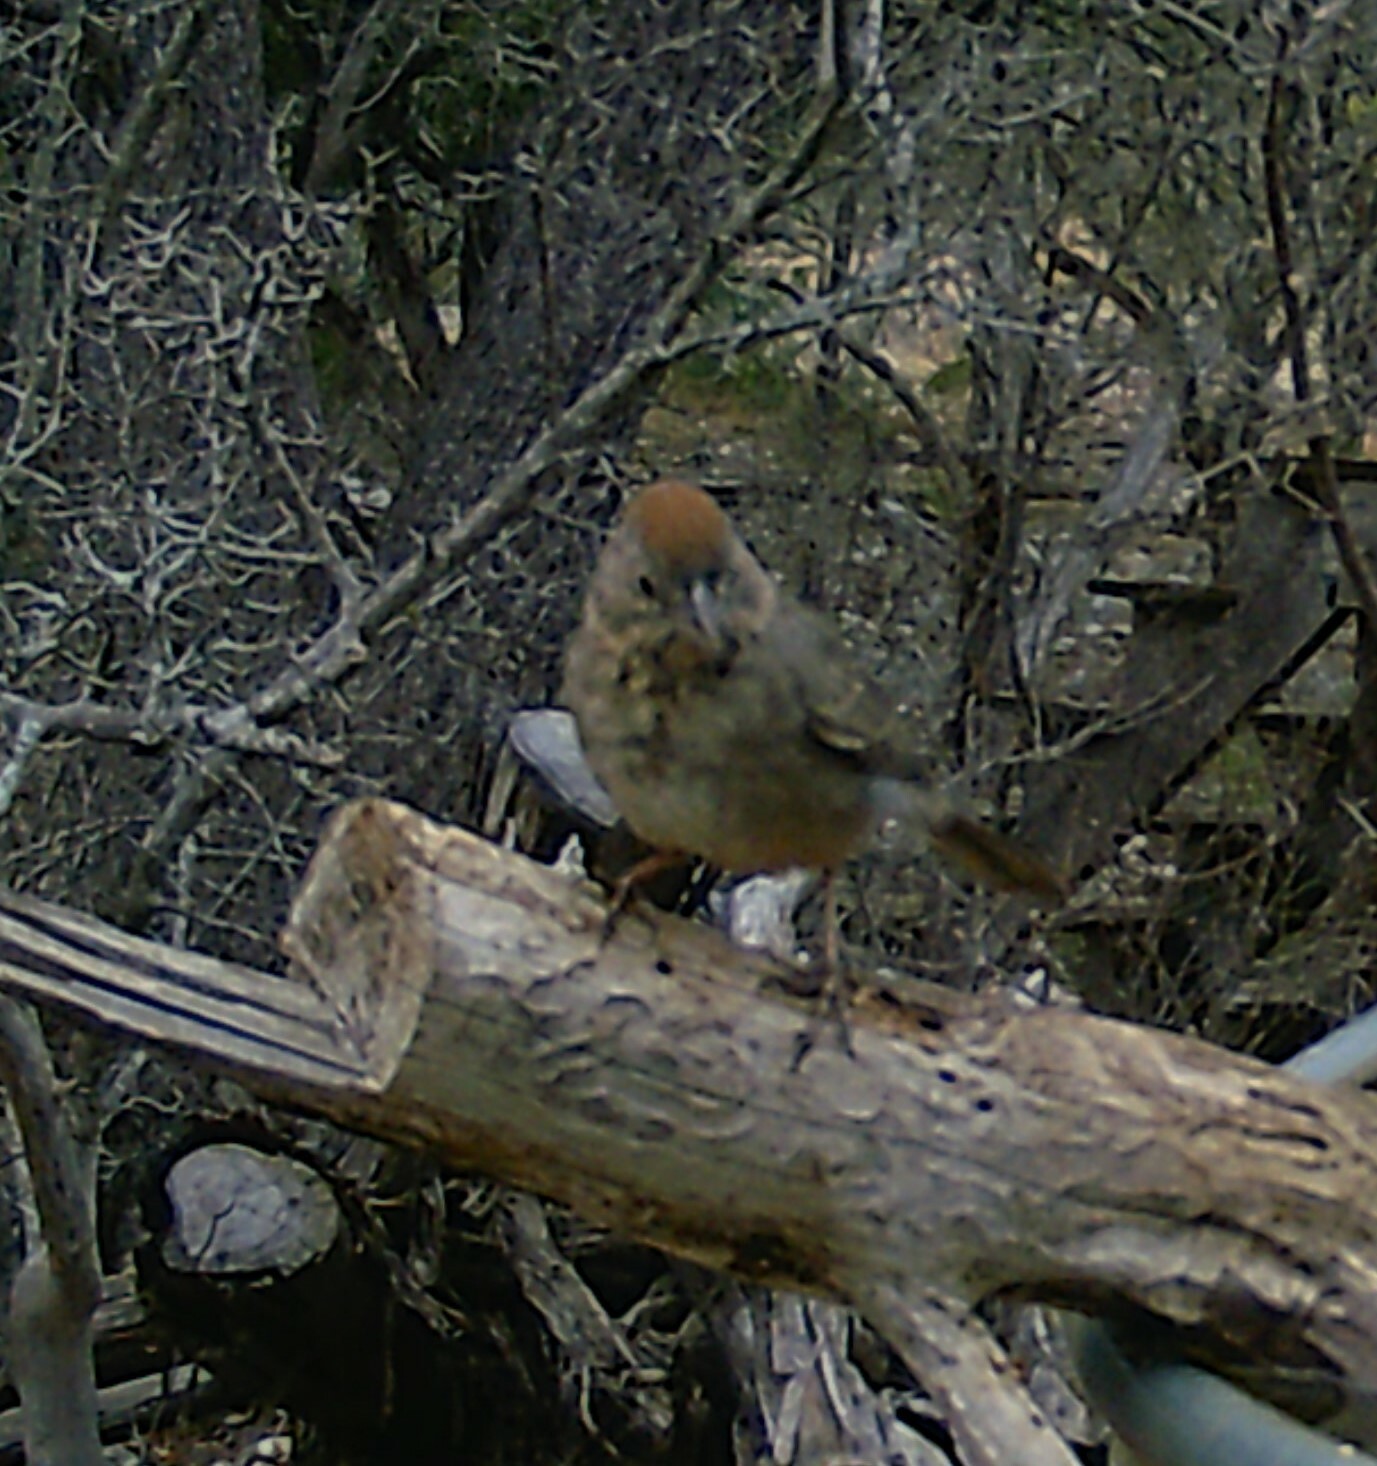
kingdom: Animalia
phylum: Chordata
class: Aves
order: Passeriformes
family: Passerellidae
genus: Melozone
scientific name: Melozone fusca
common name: Canyon towhee
